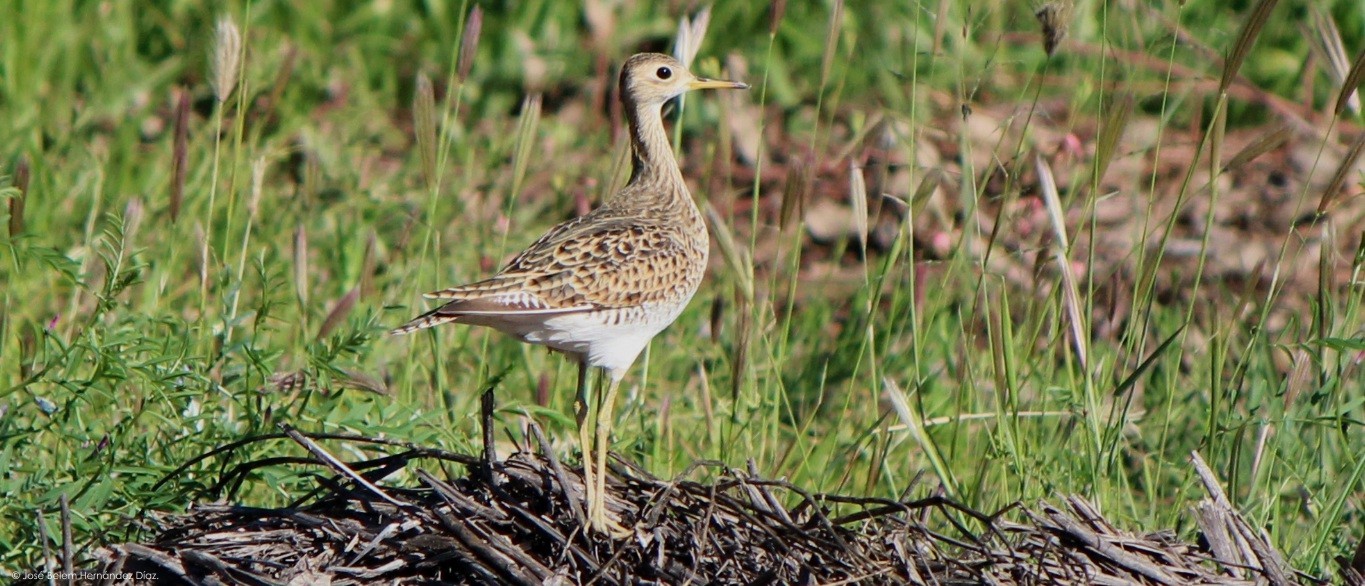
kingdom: Animalia
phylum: Chordata
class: Aves
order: Charadriiformes
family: Scolopacidae
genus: Bartramia
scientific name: Bartramia longicauda
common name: Upland sandpiper
